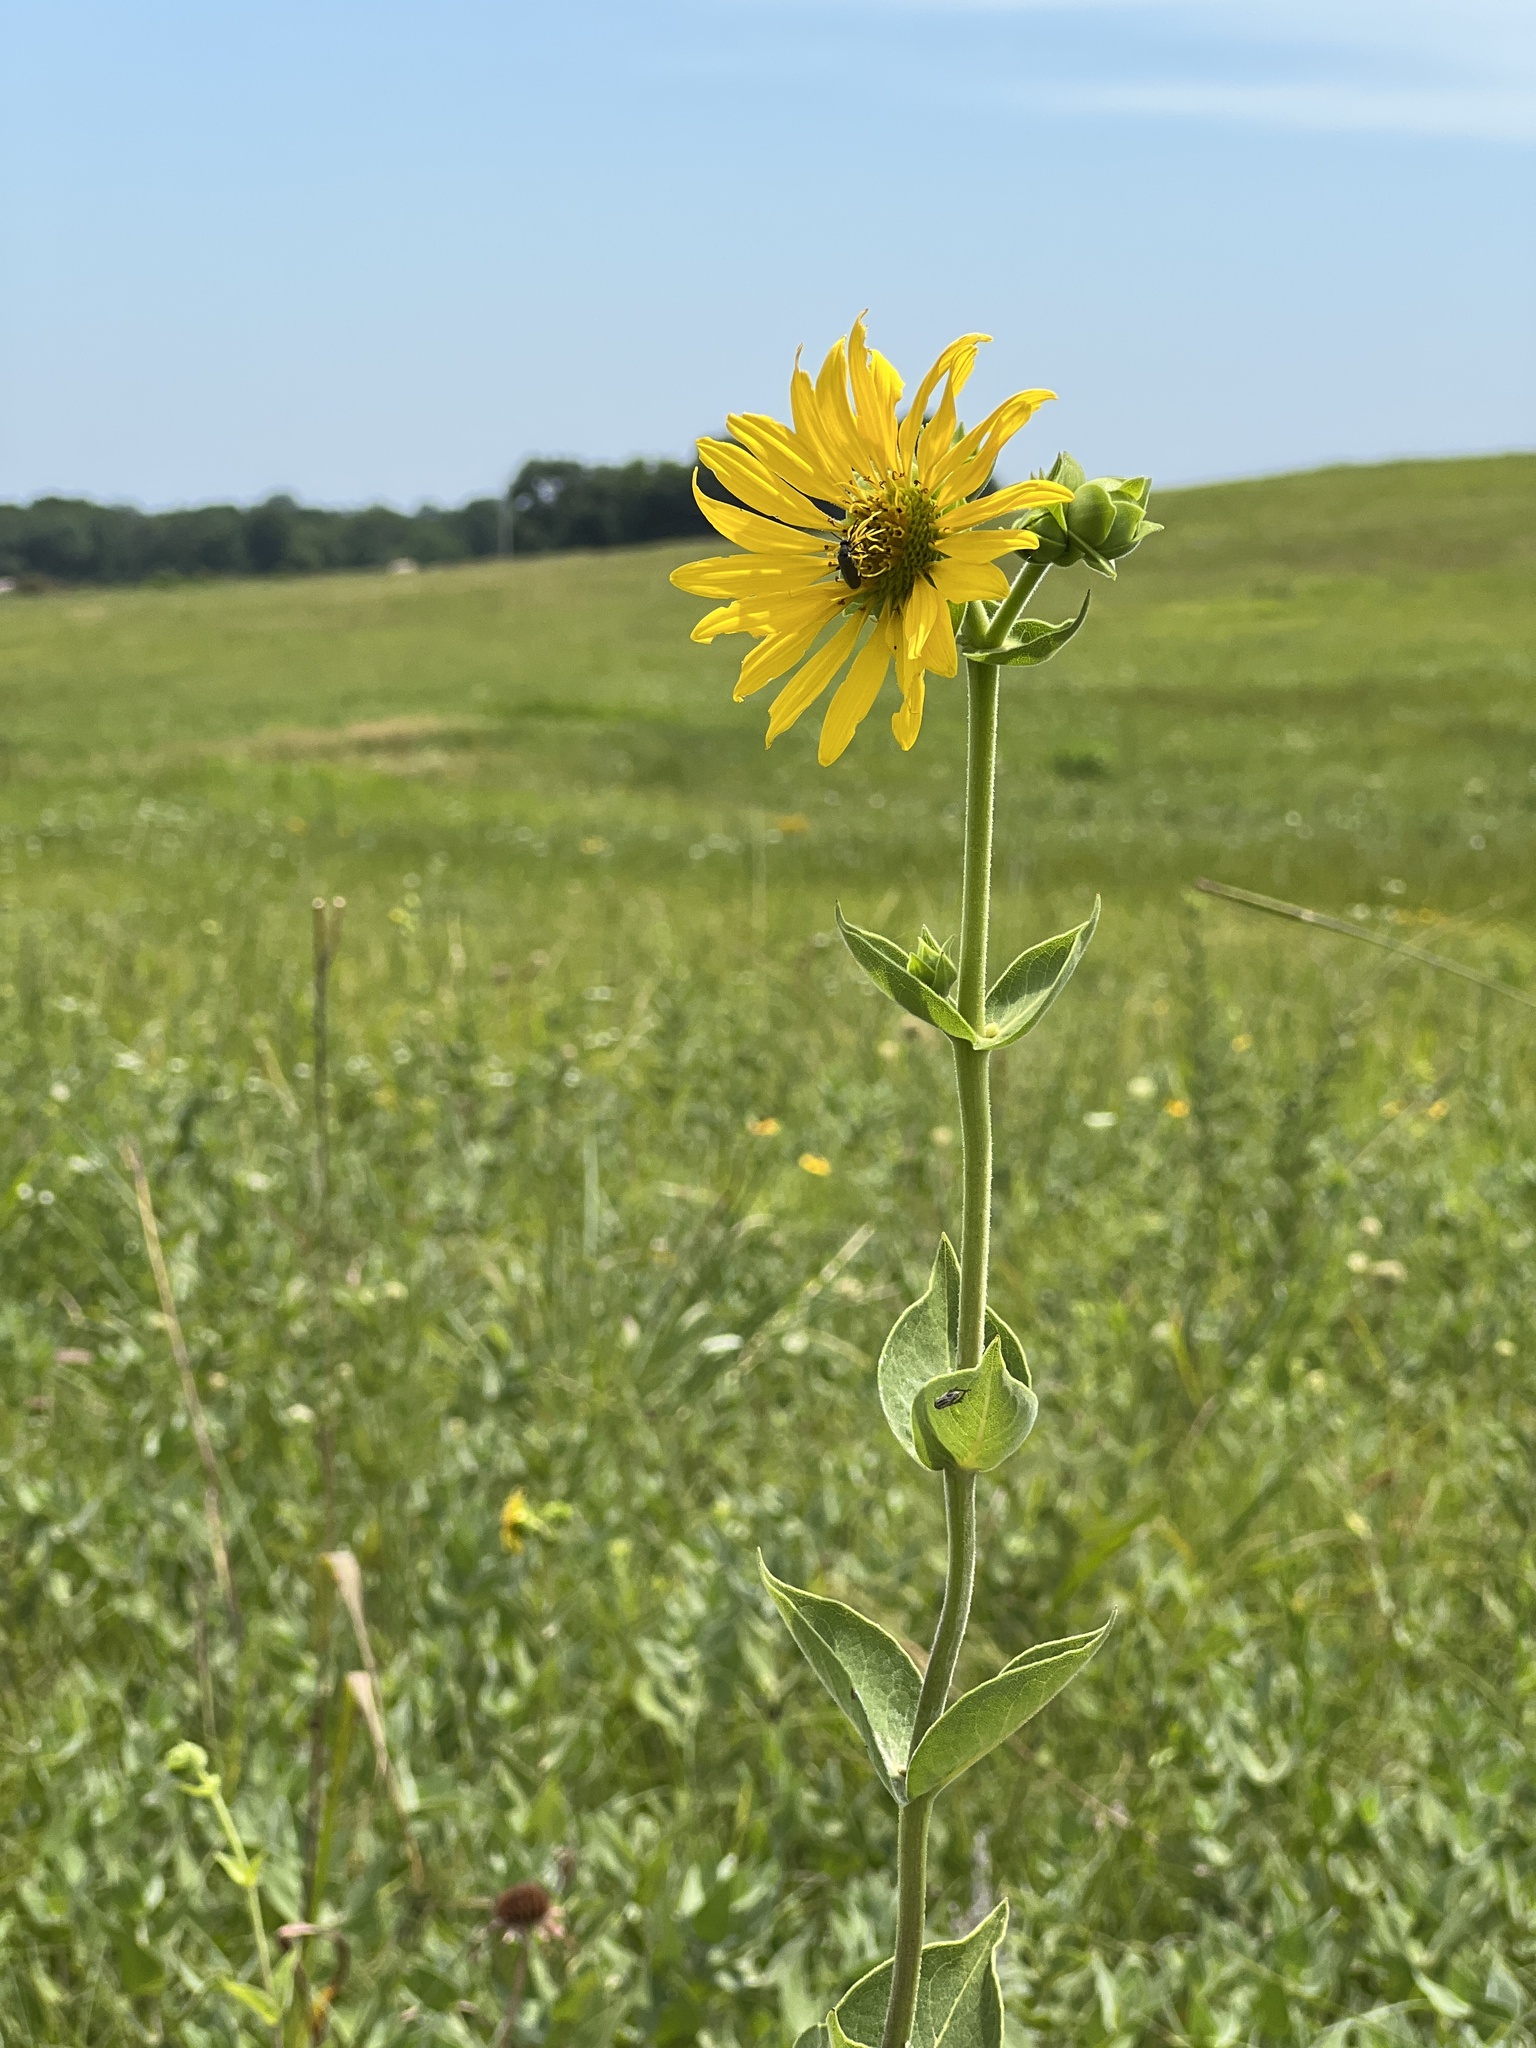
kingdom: Plantae
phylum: Tracheophyta
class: Magnoliopsida
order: Asterales
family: Asteraceae
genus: Silphium
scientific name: Silphium integrifolium
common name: Whole-leaf rosinweed
